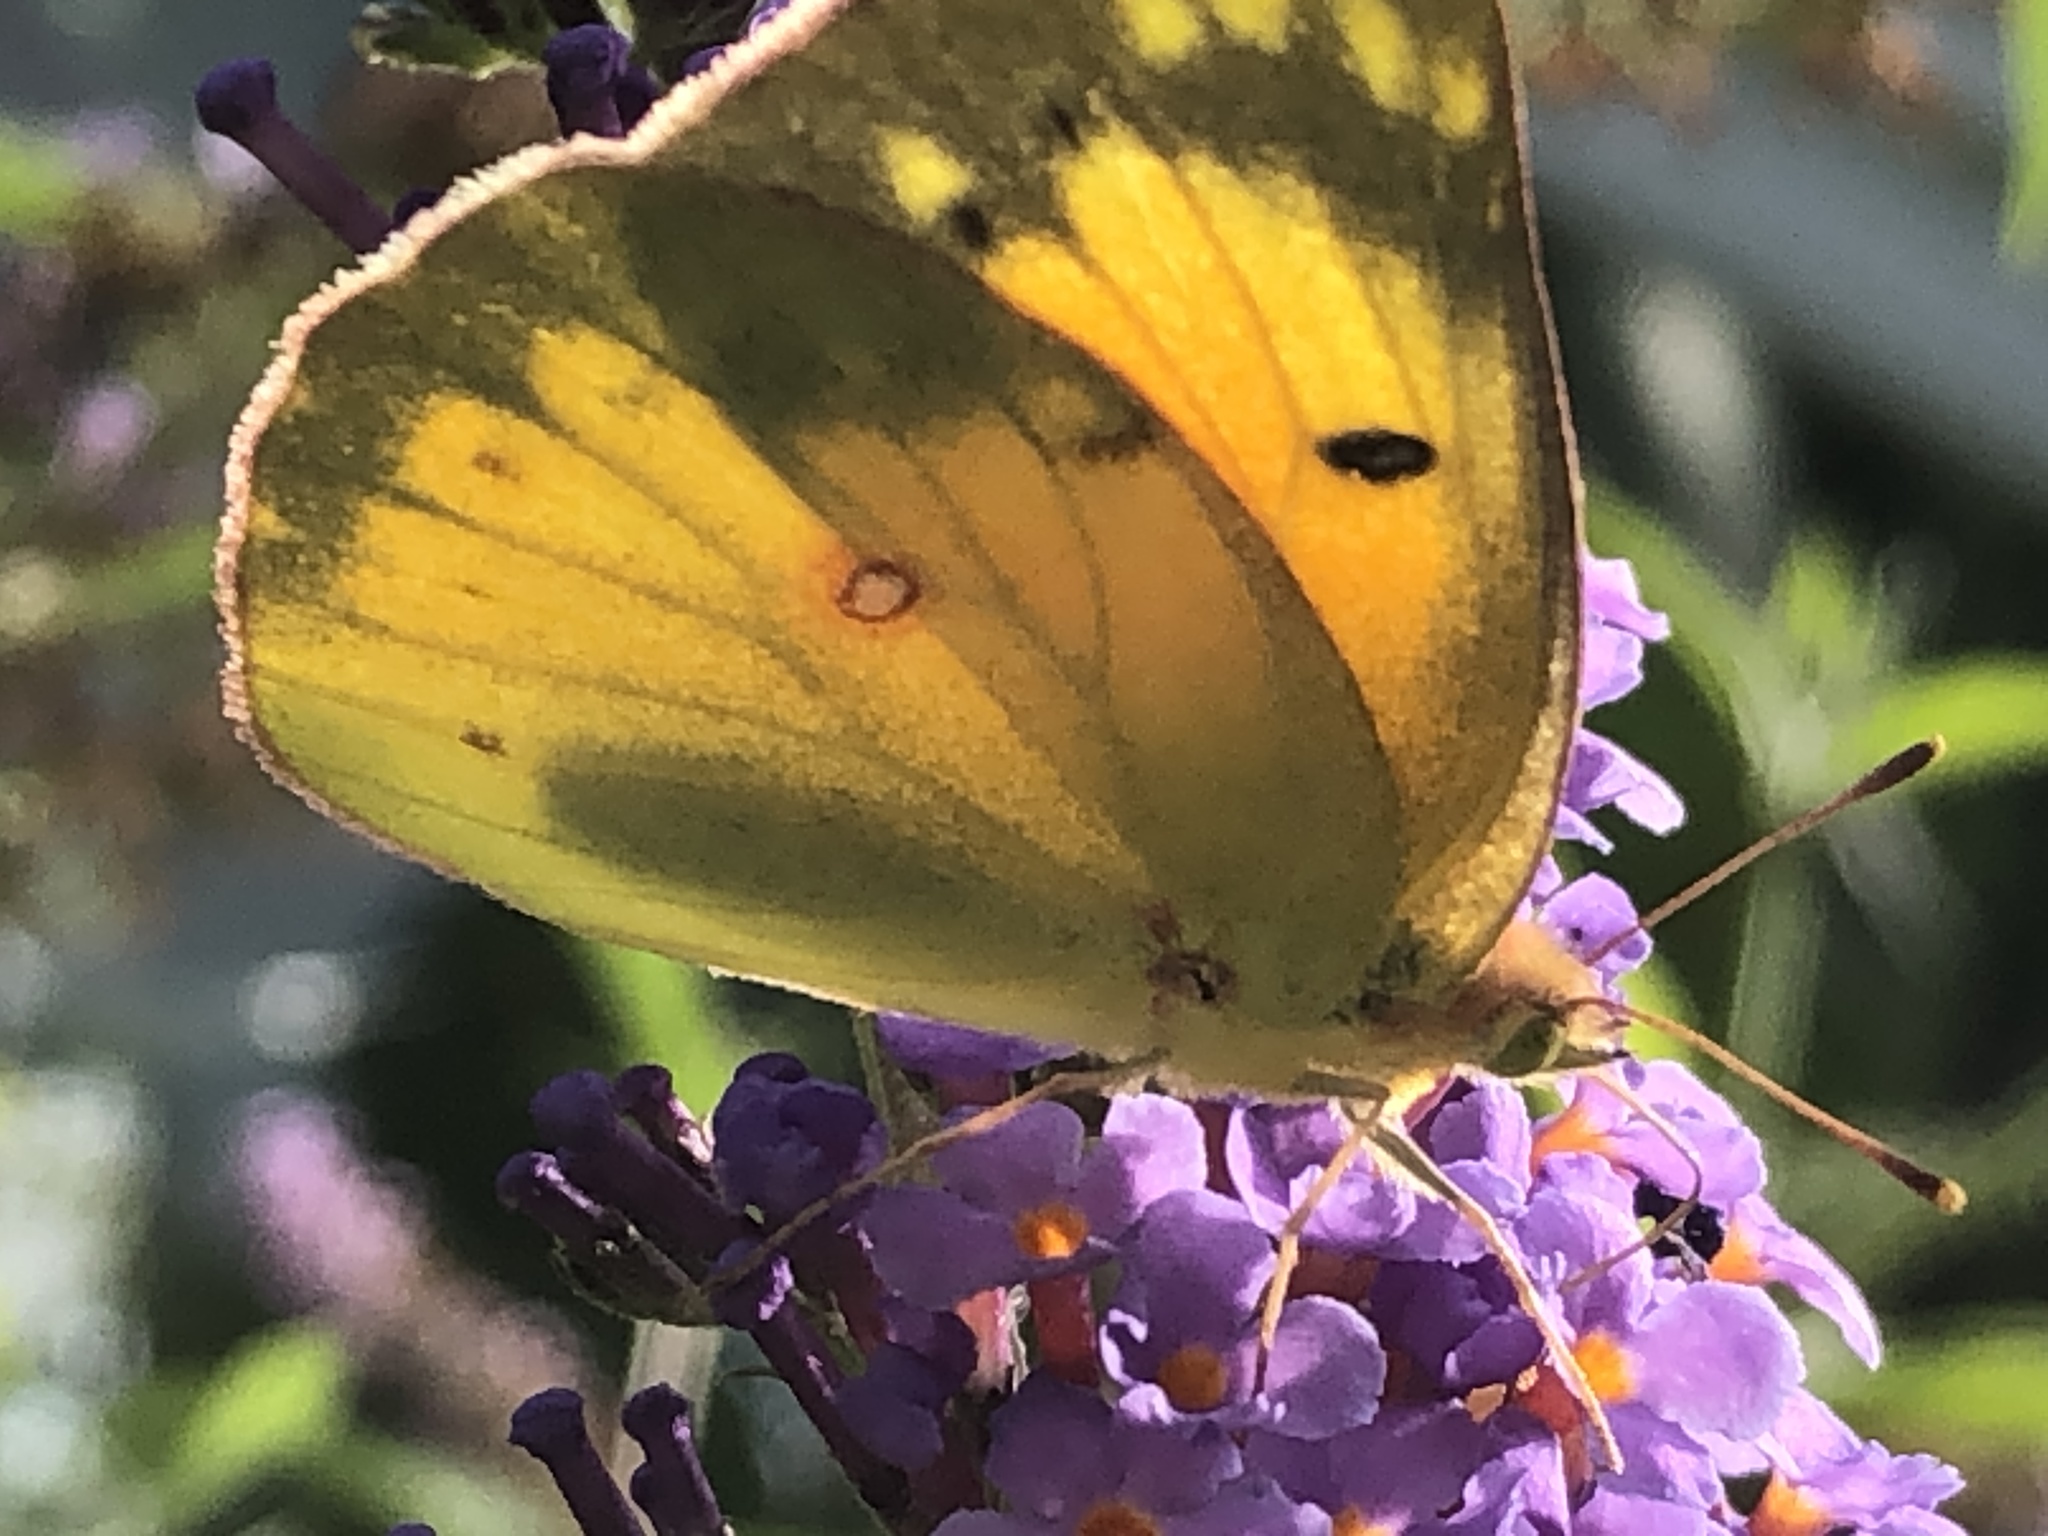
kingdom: Animalia
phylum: Arthropoda
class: Insecta
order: Lepidoptera
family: Pieridae
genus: Colias
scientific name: Colias eurytheme
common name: Alfalfa butterfly
